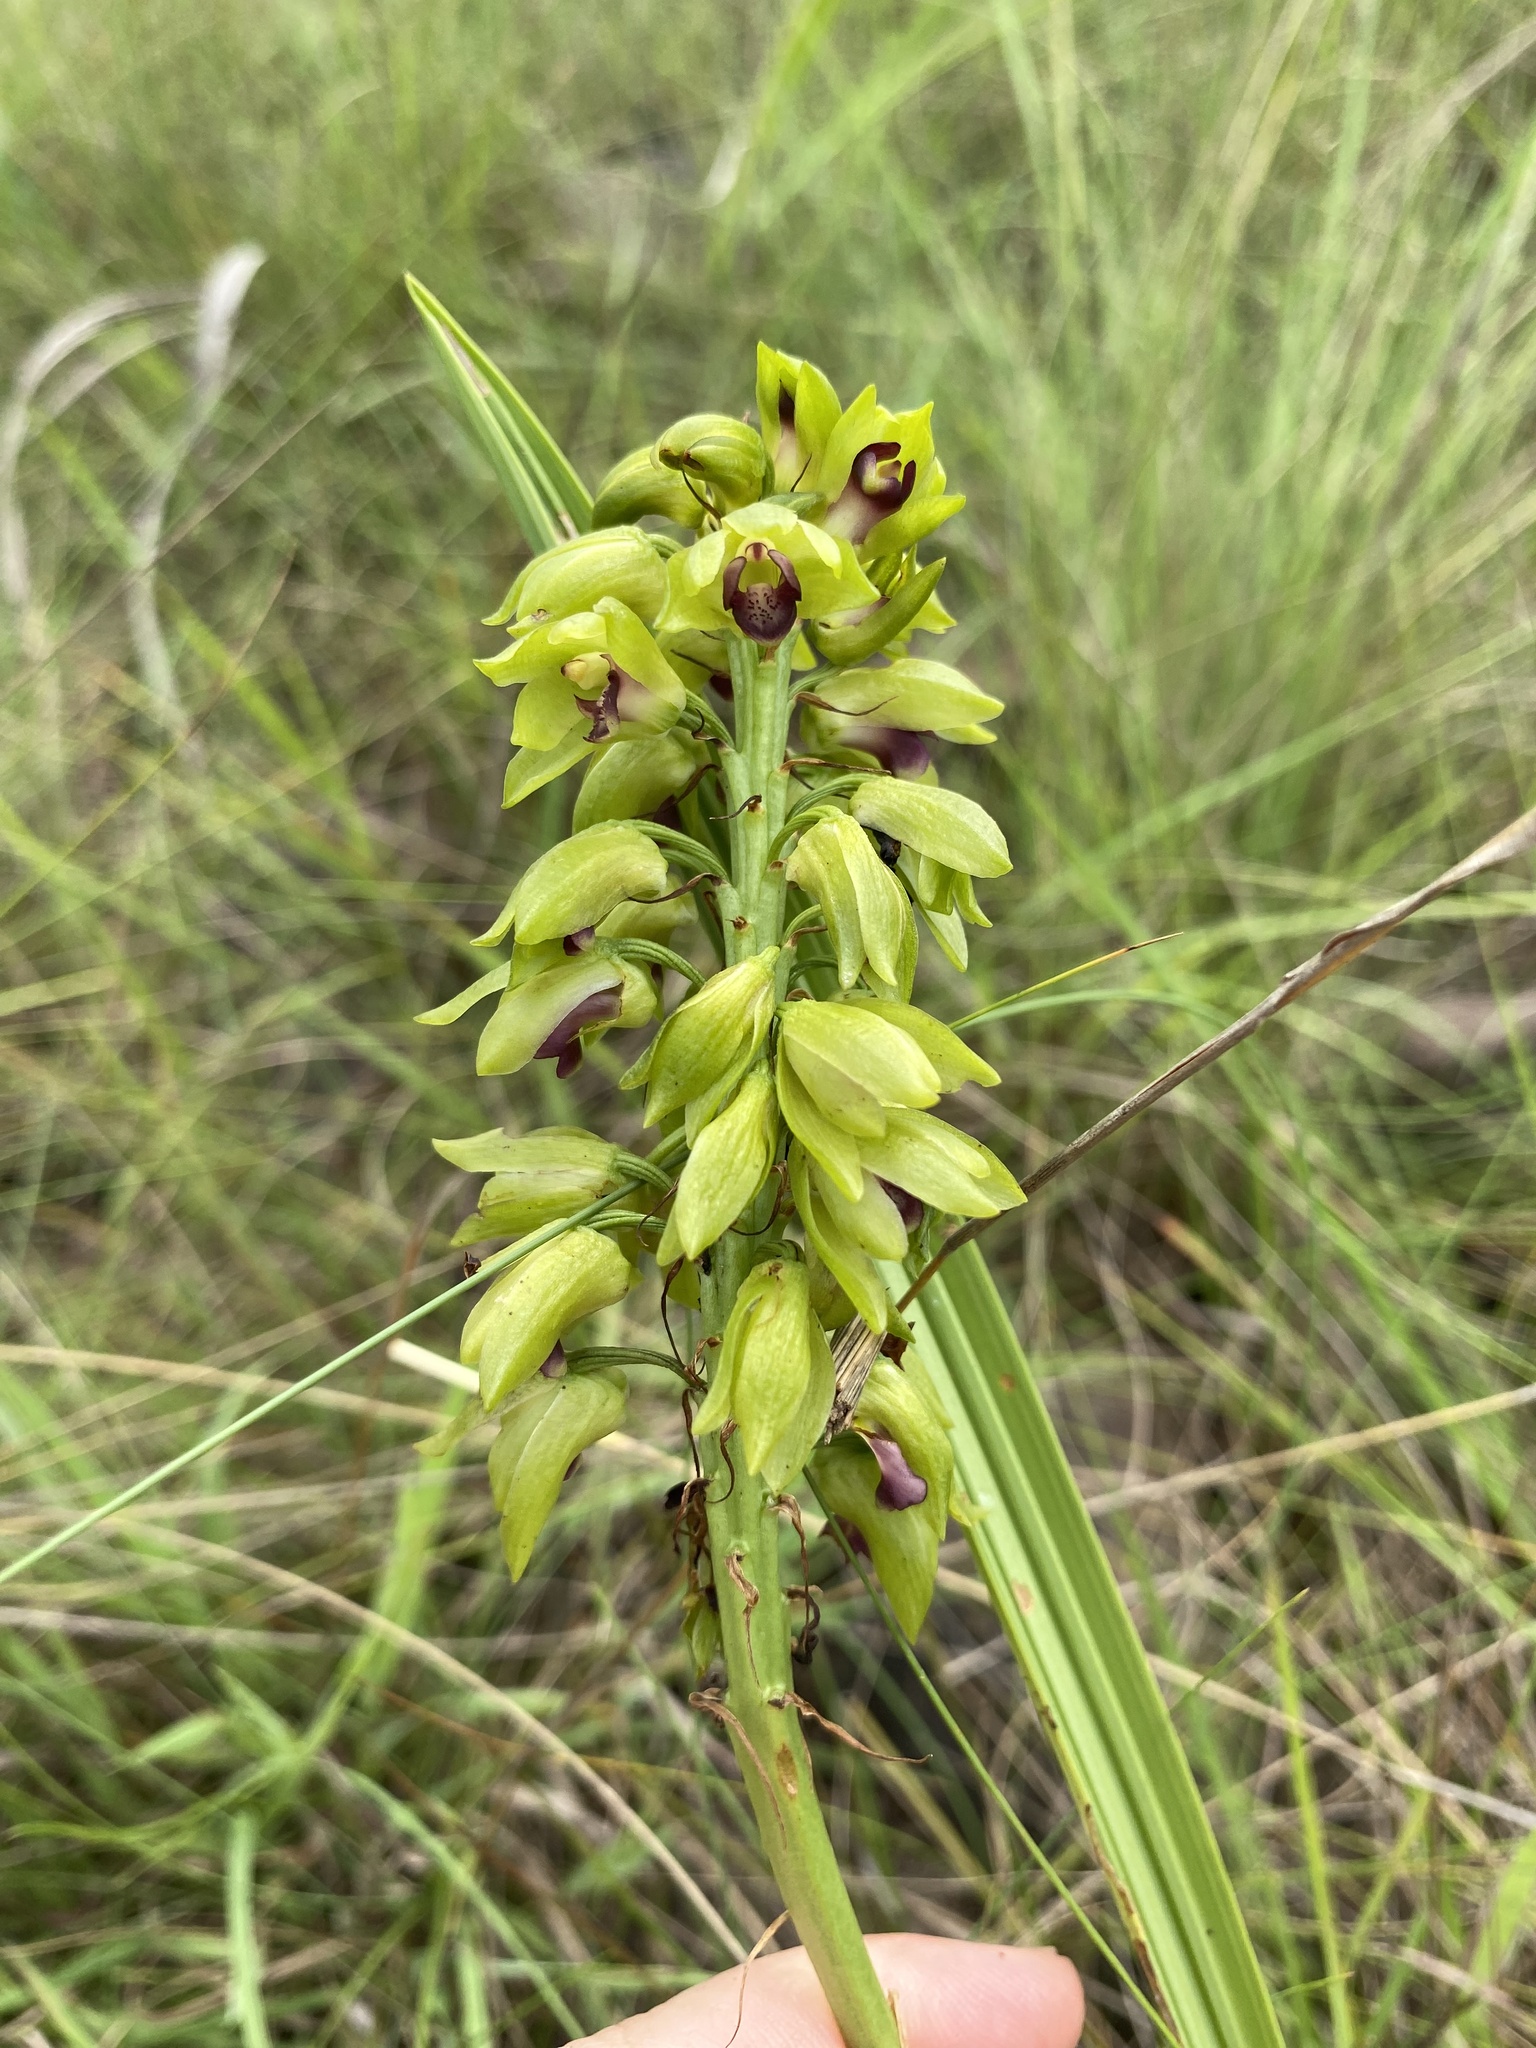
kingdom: Plantae
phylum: Tracheophyta
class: Liliopsida
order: Asparagales
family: Orchidaceae
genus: Eulophia
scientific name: Eulophia foliosa
